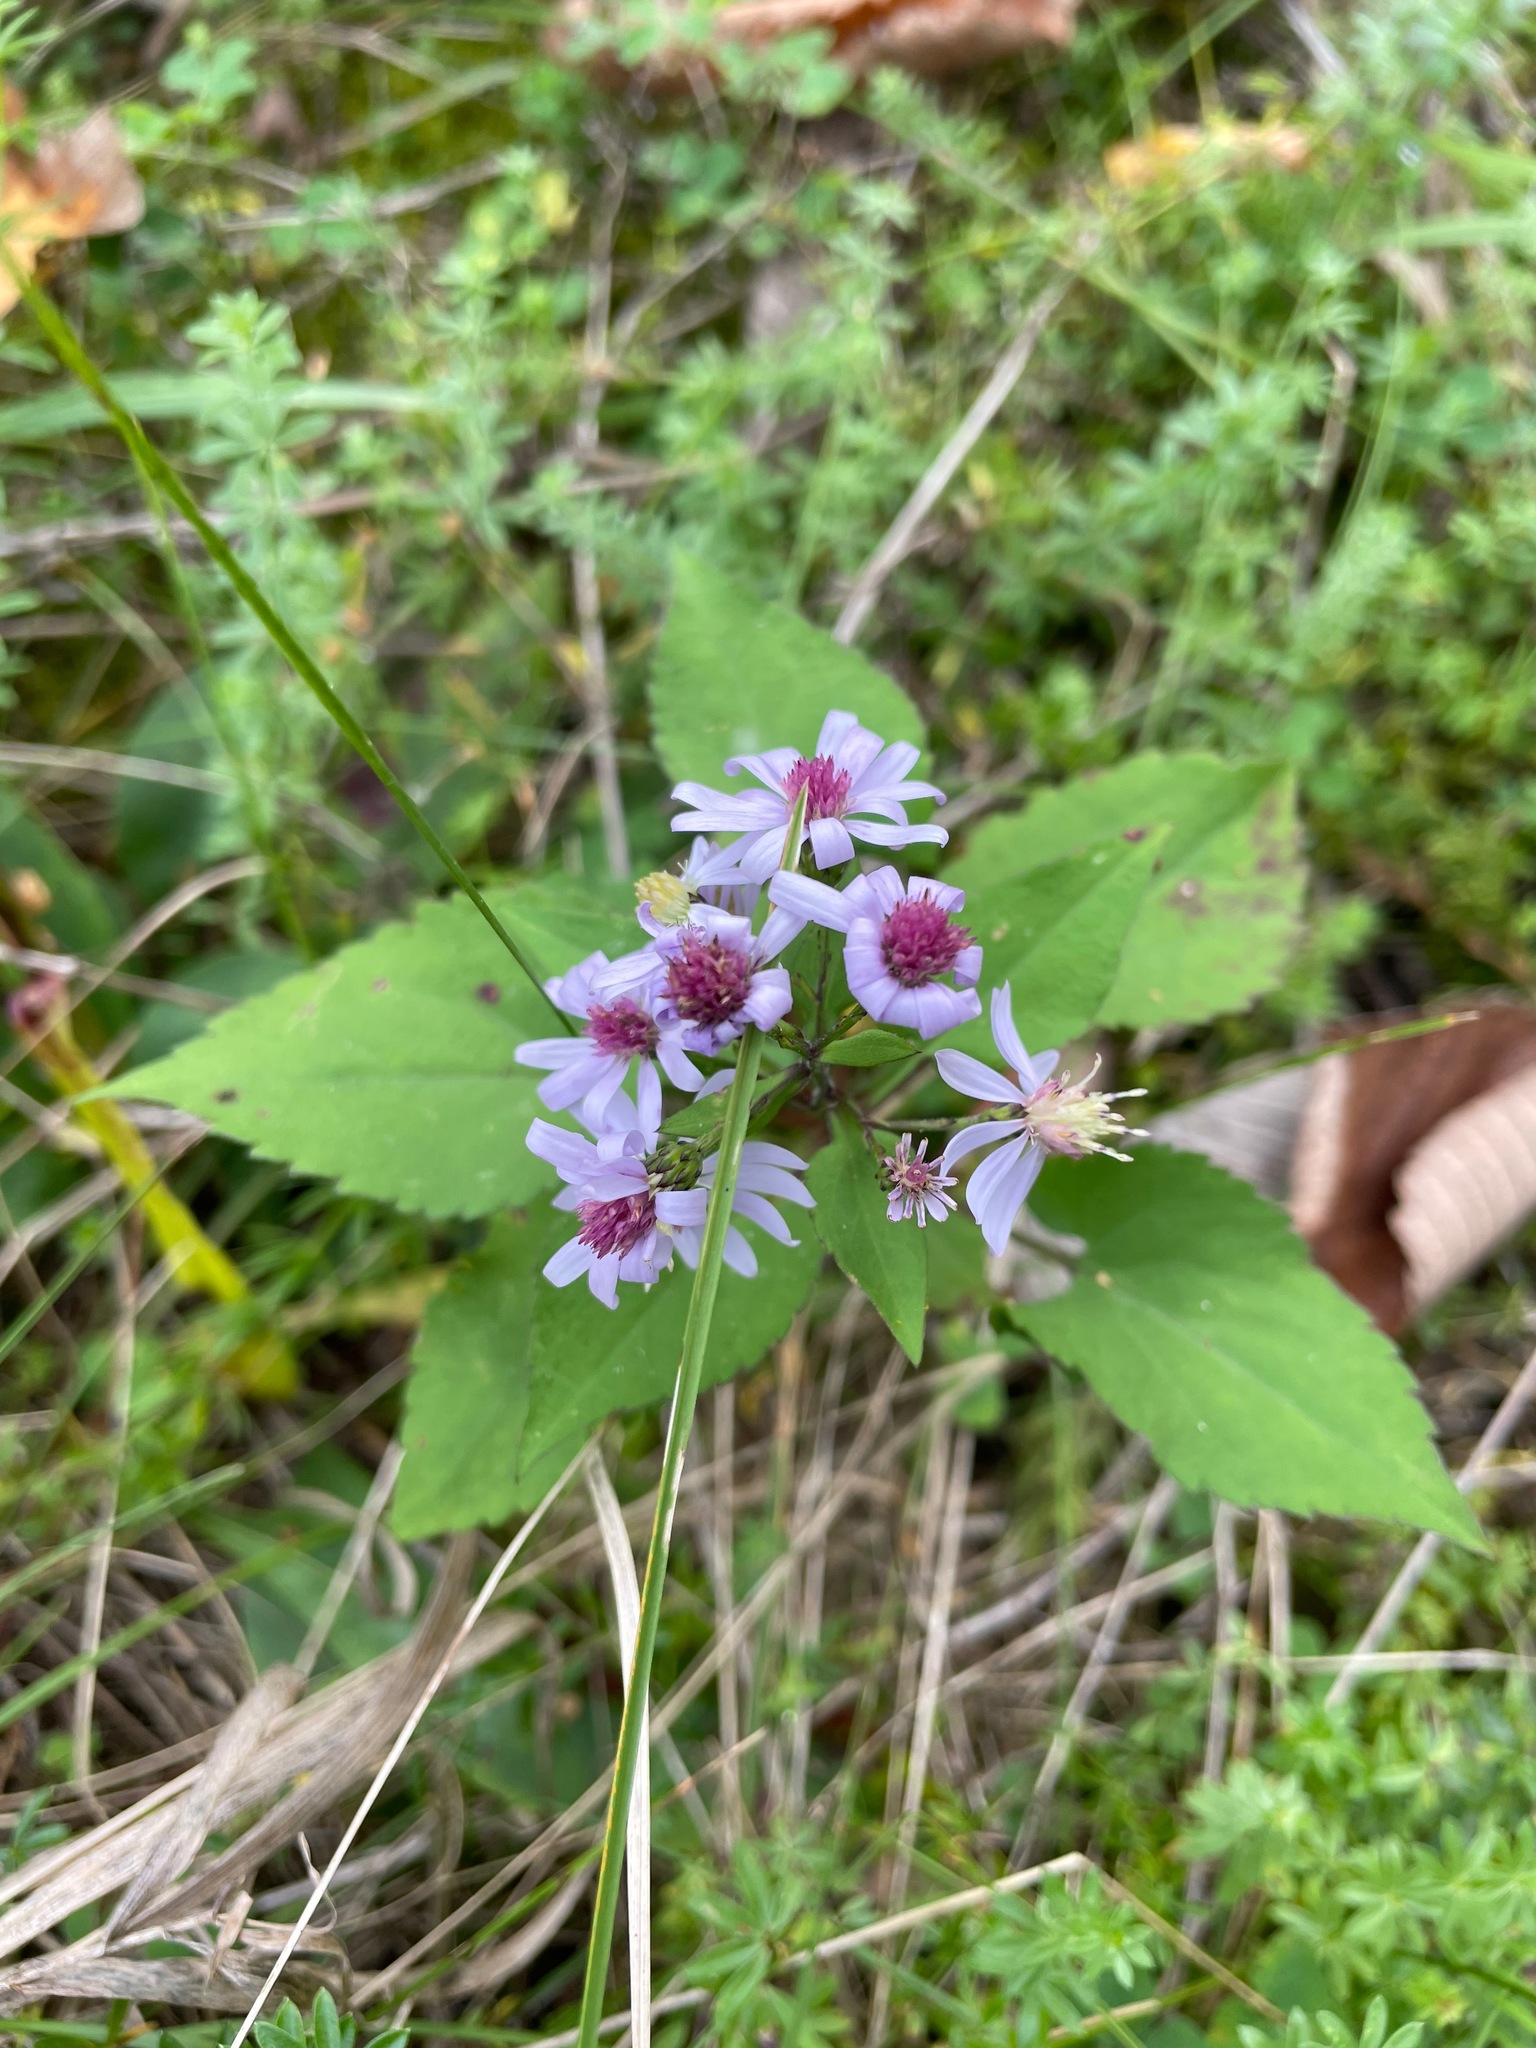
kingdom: Plantae
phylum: Tracheophyta
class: Magnoliopsida
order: Asterales
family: Asteraceae
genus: Symphyotrichum
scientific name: Symphyotrichum cordifolium
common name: Beeweed
